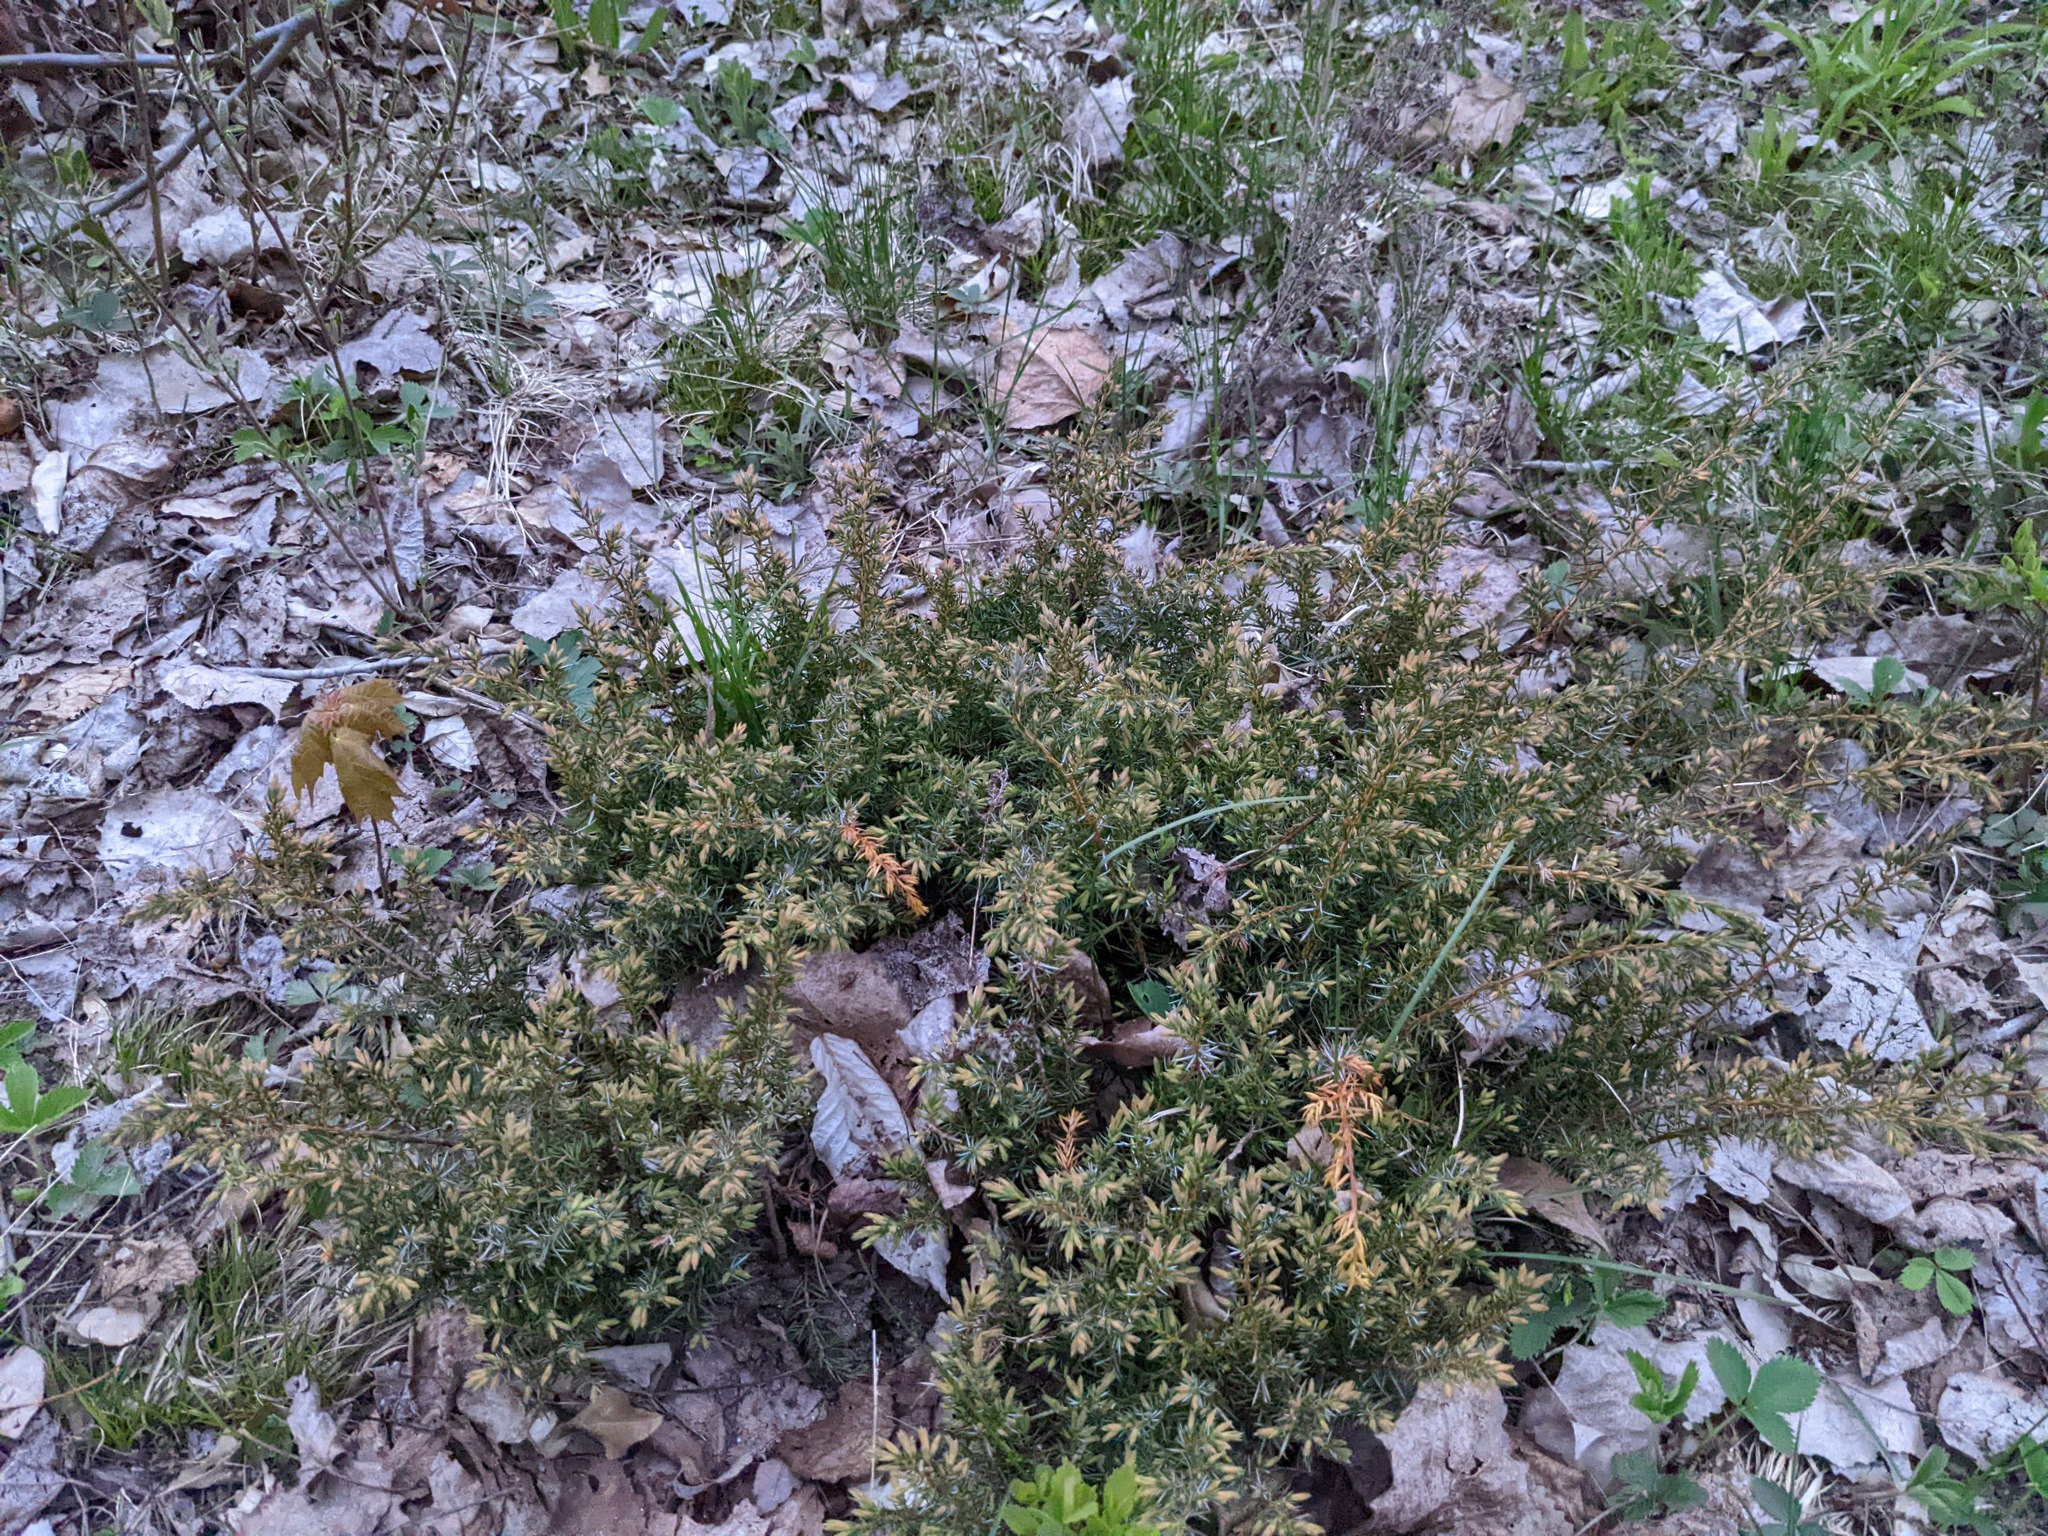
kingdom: Plantae
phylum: Tracheophyta
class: Pinopsida
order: Pinales
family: Cupressaceae
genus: Juniperus
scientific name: Juniperus communis
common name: Common juniper
